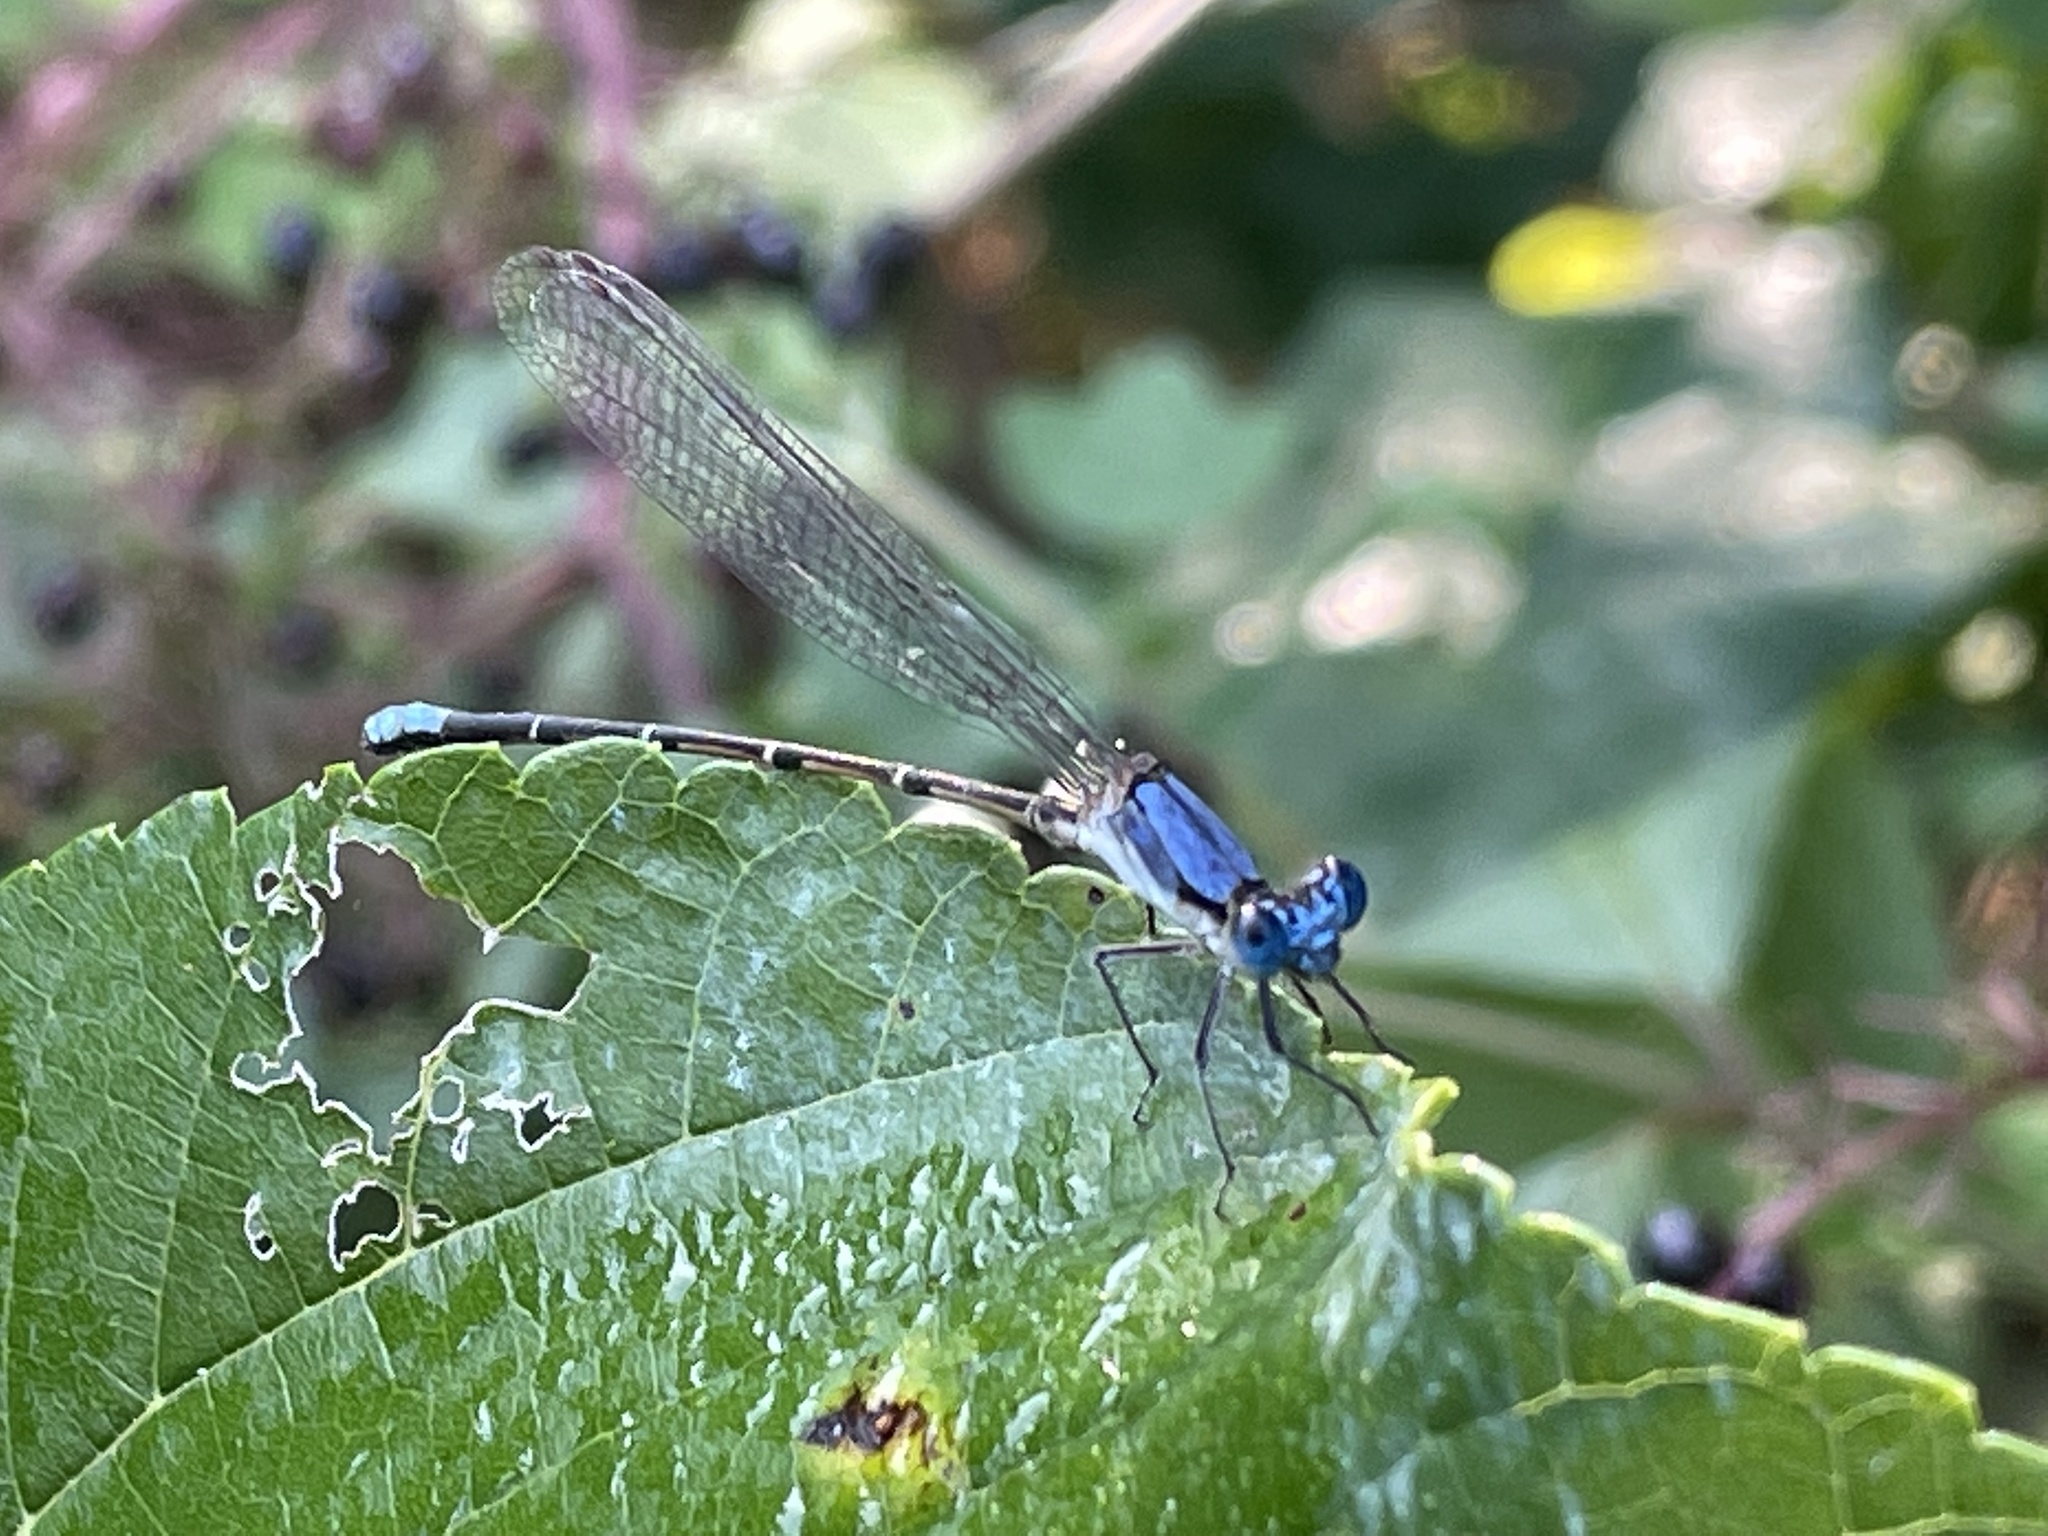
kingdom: Animalia
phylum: Arthropoda
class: Insecta
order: Odonata
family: Coenagrionidae
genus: Argia
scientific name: Argia apicalis
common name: Blue-fronted dancer
